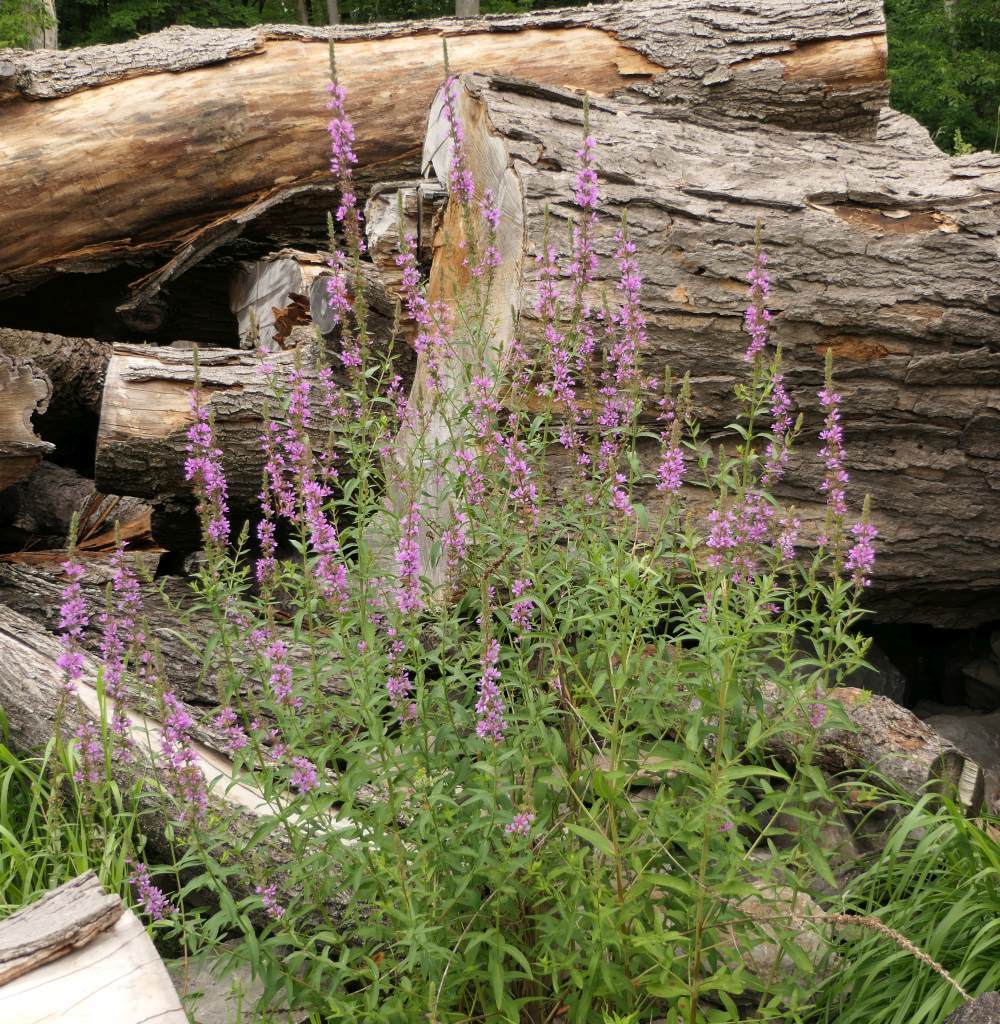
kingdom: Plantae
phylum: Tracheophyta
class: Magnoliopsida
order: Myrtales
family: Lythraceae
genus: Lythrum
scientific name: Lythrum salicaria
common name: Purple loosestrife
